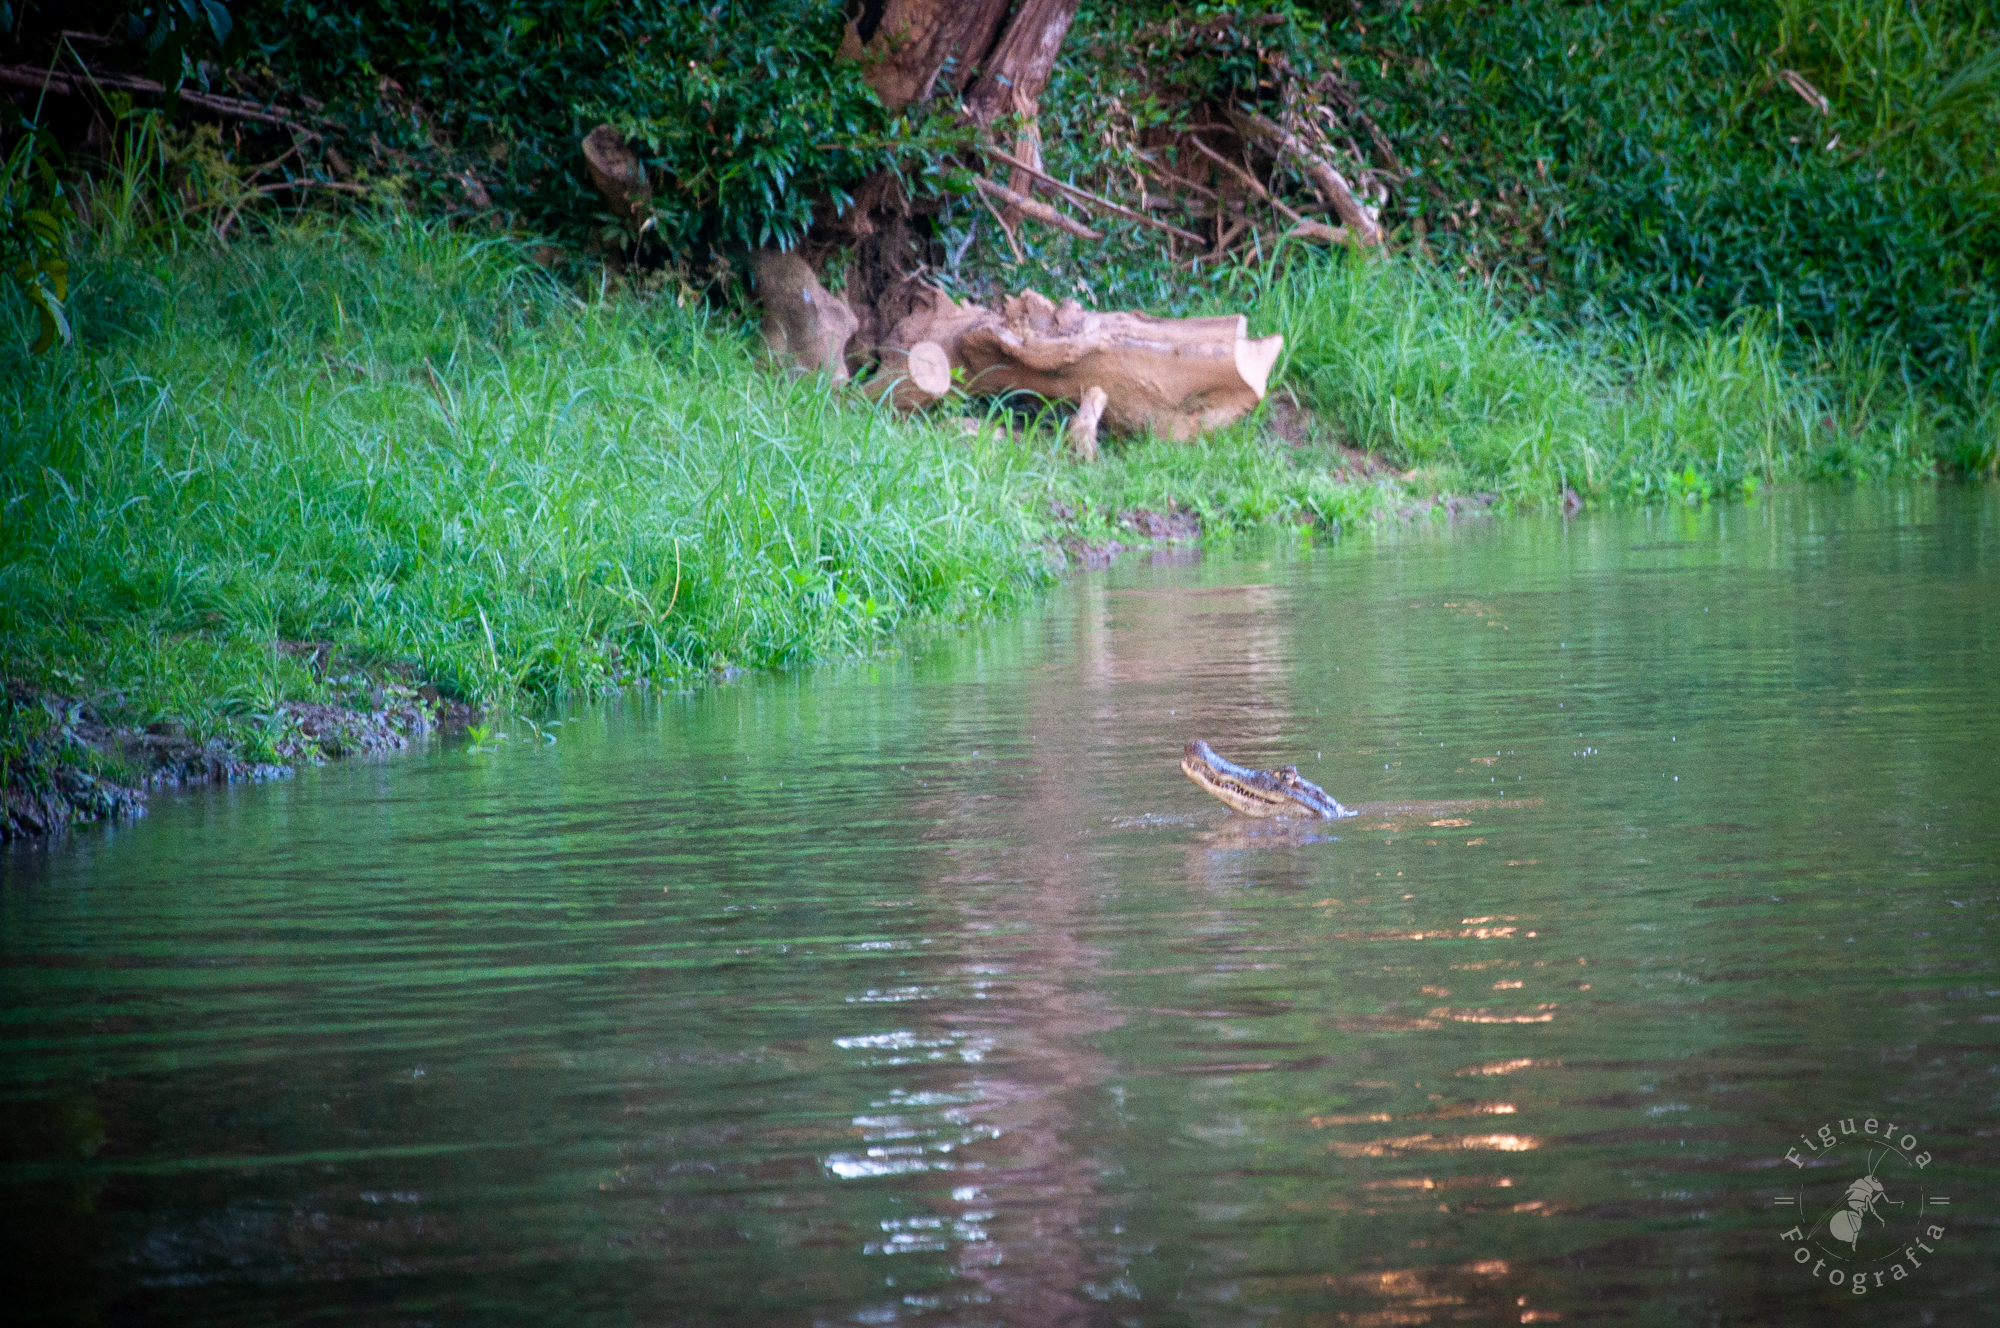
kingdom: Animalia
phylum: Chordata
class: Crocodylia
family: Alligatoridae
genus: Caiman
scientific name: Caiman crocodilus
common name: Common caiman
